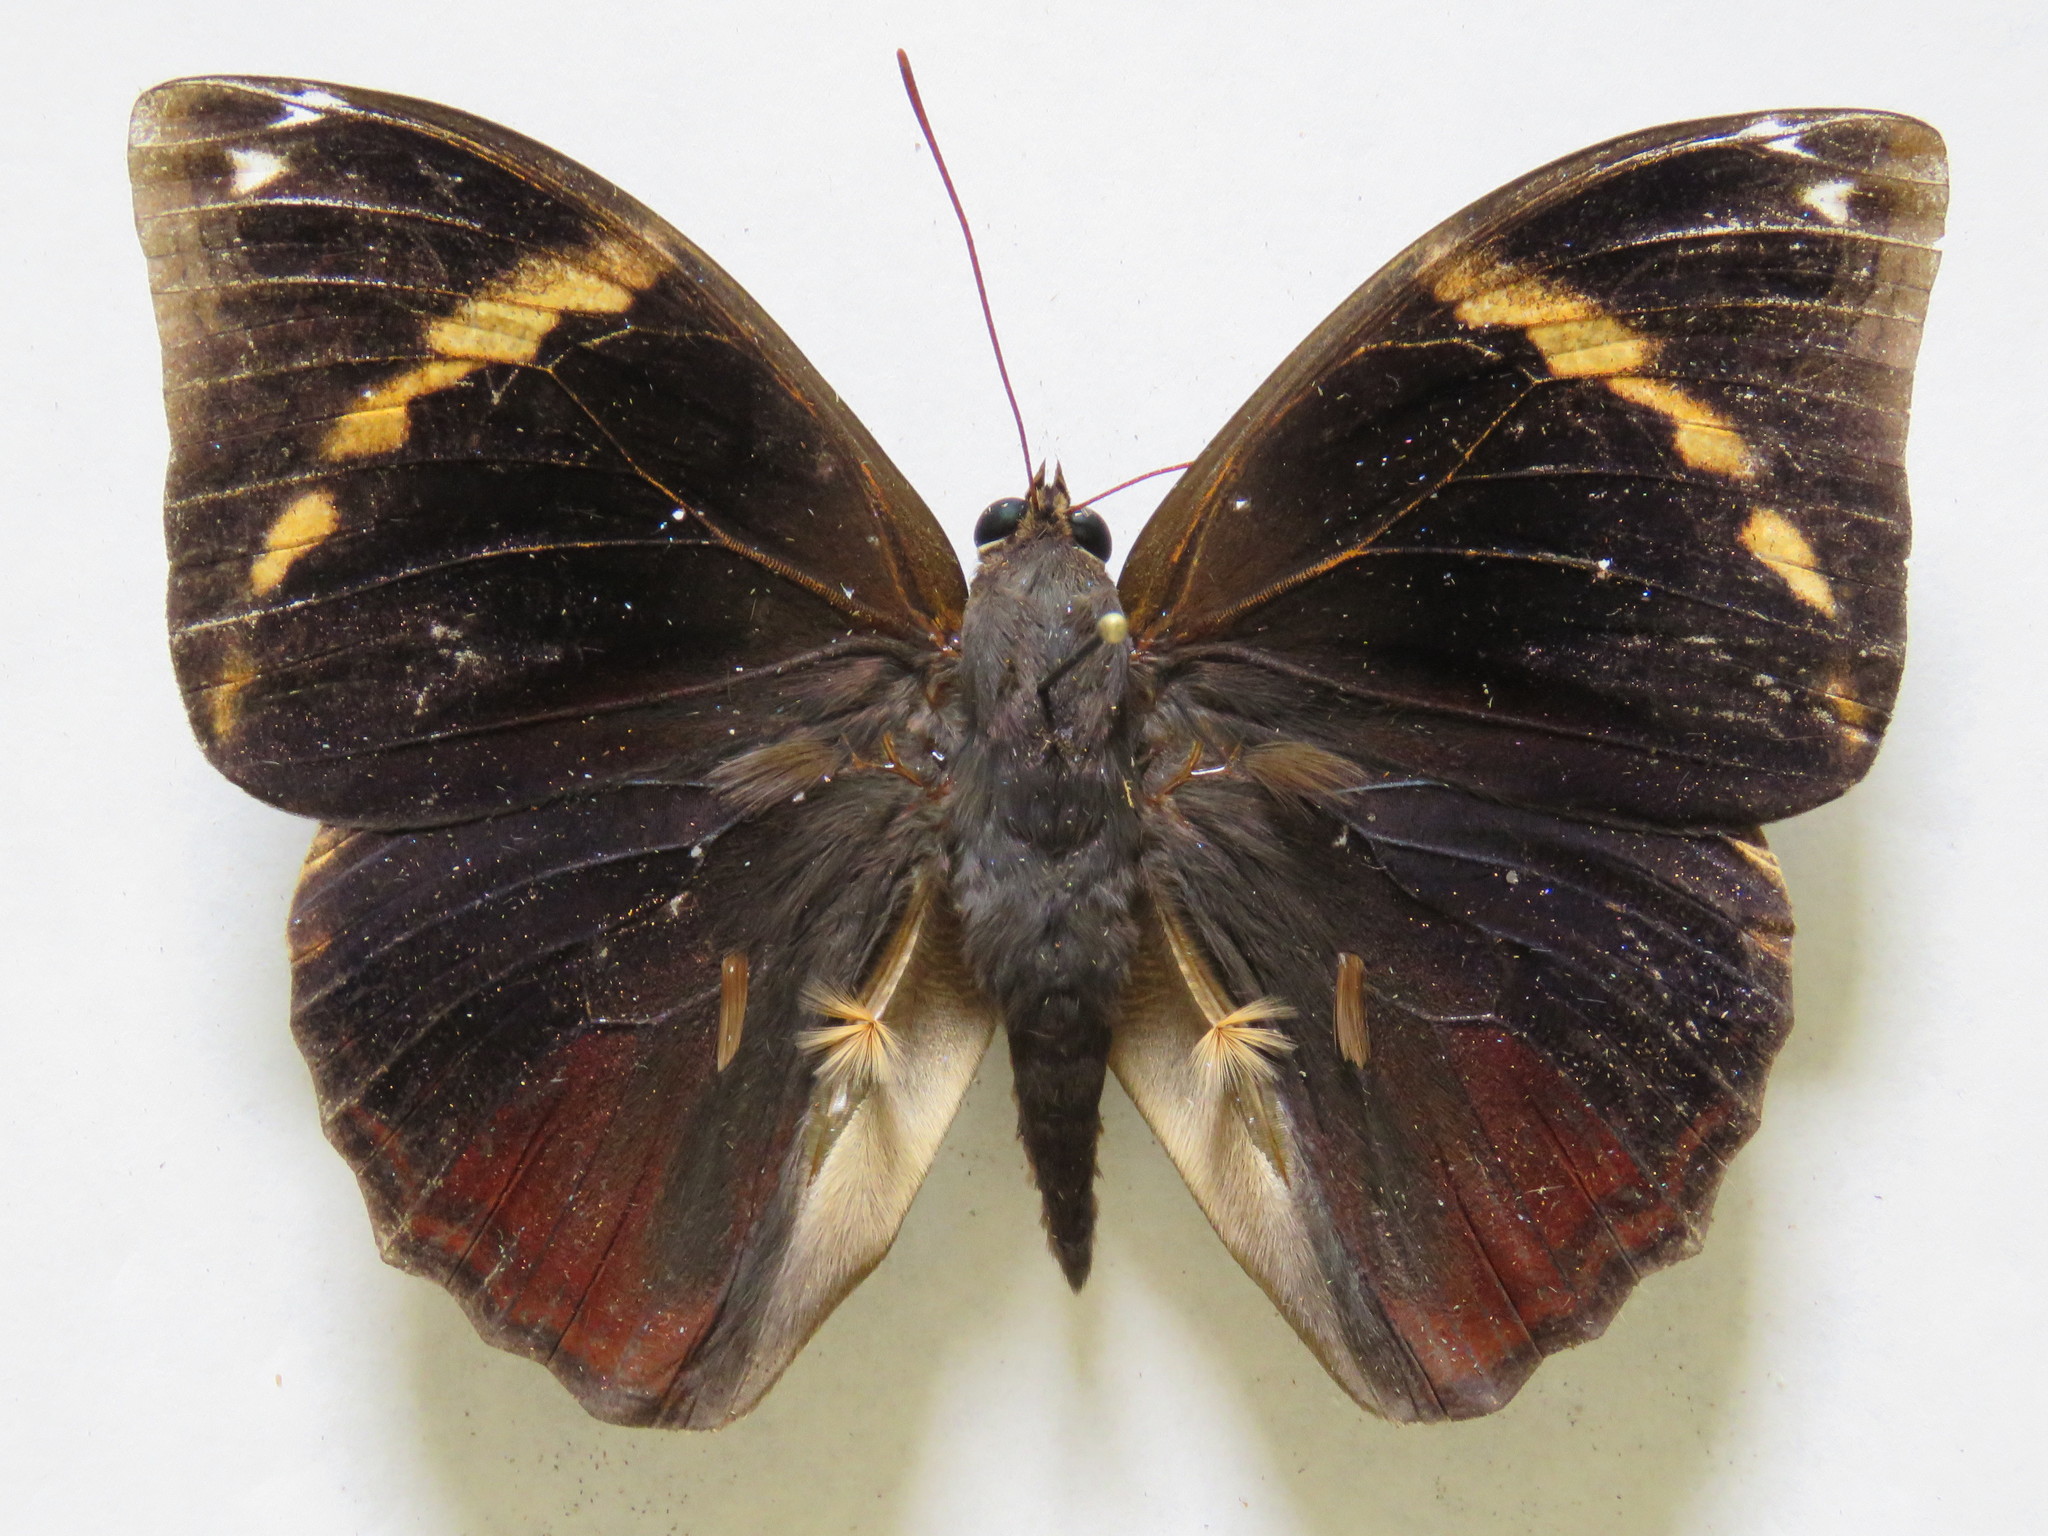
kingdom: Animalia
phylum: Arthropoda
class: Insecta
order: Lepidoptera
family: Nymphalidae
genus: Opsiphanes
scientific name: Opsiphanes cassiae
